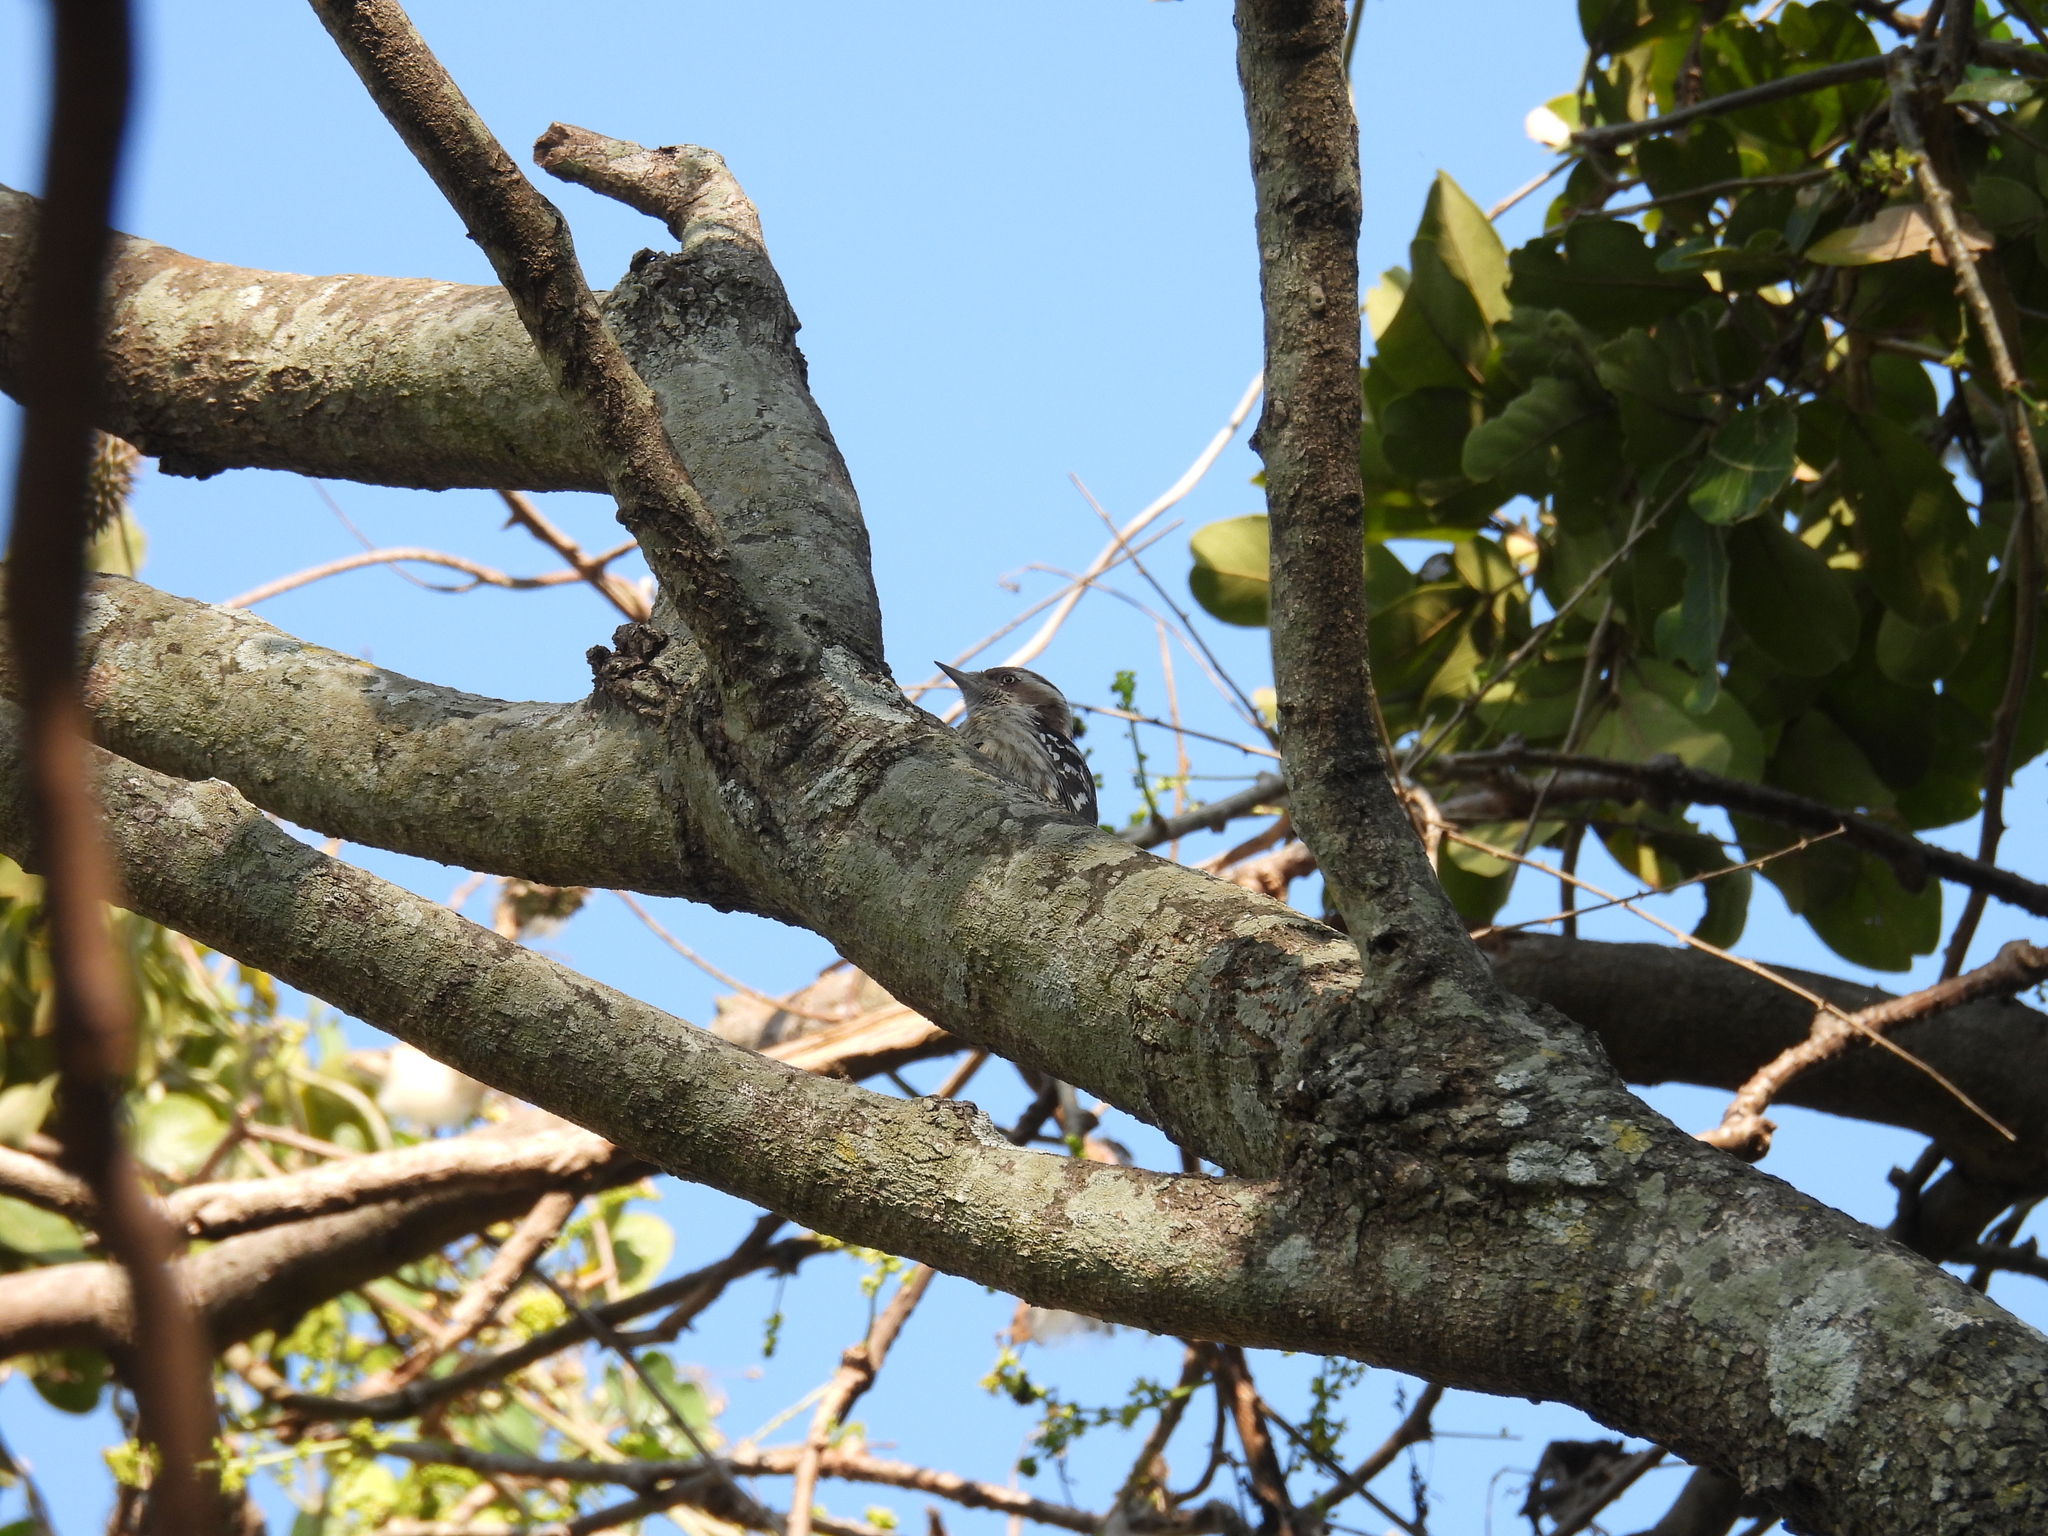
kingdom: Animalia
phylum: Chordata
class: Aves
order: Piciformes
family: Picidae
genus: Yungipicus
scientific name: Yungipicus nanus
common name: Brown-capped pygmy woodpecker
